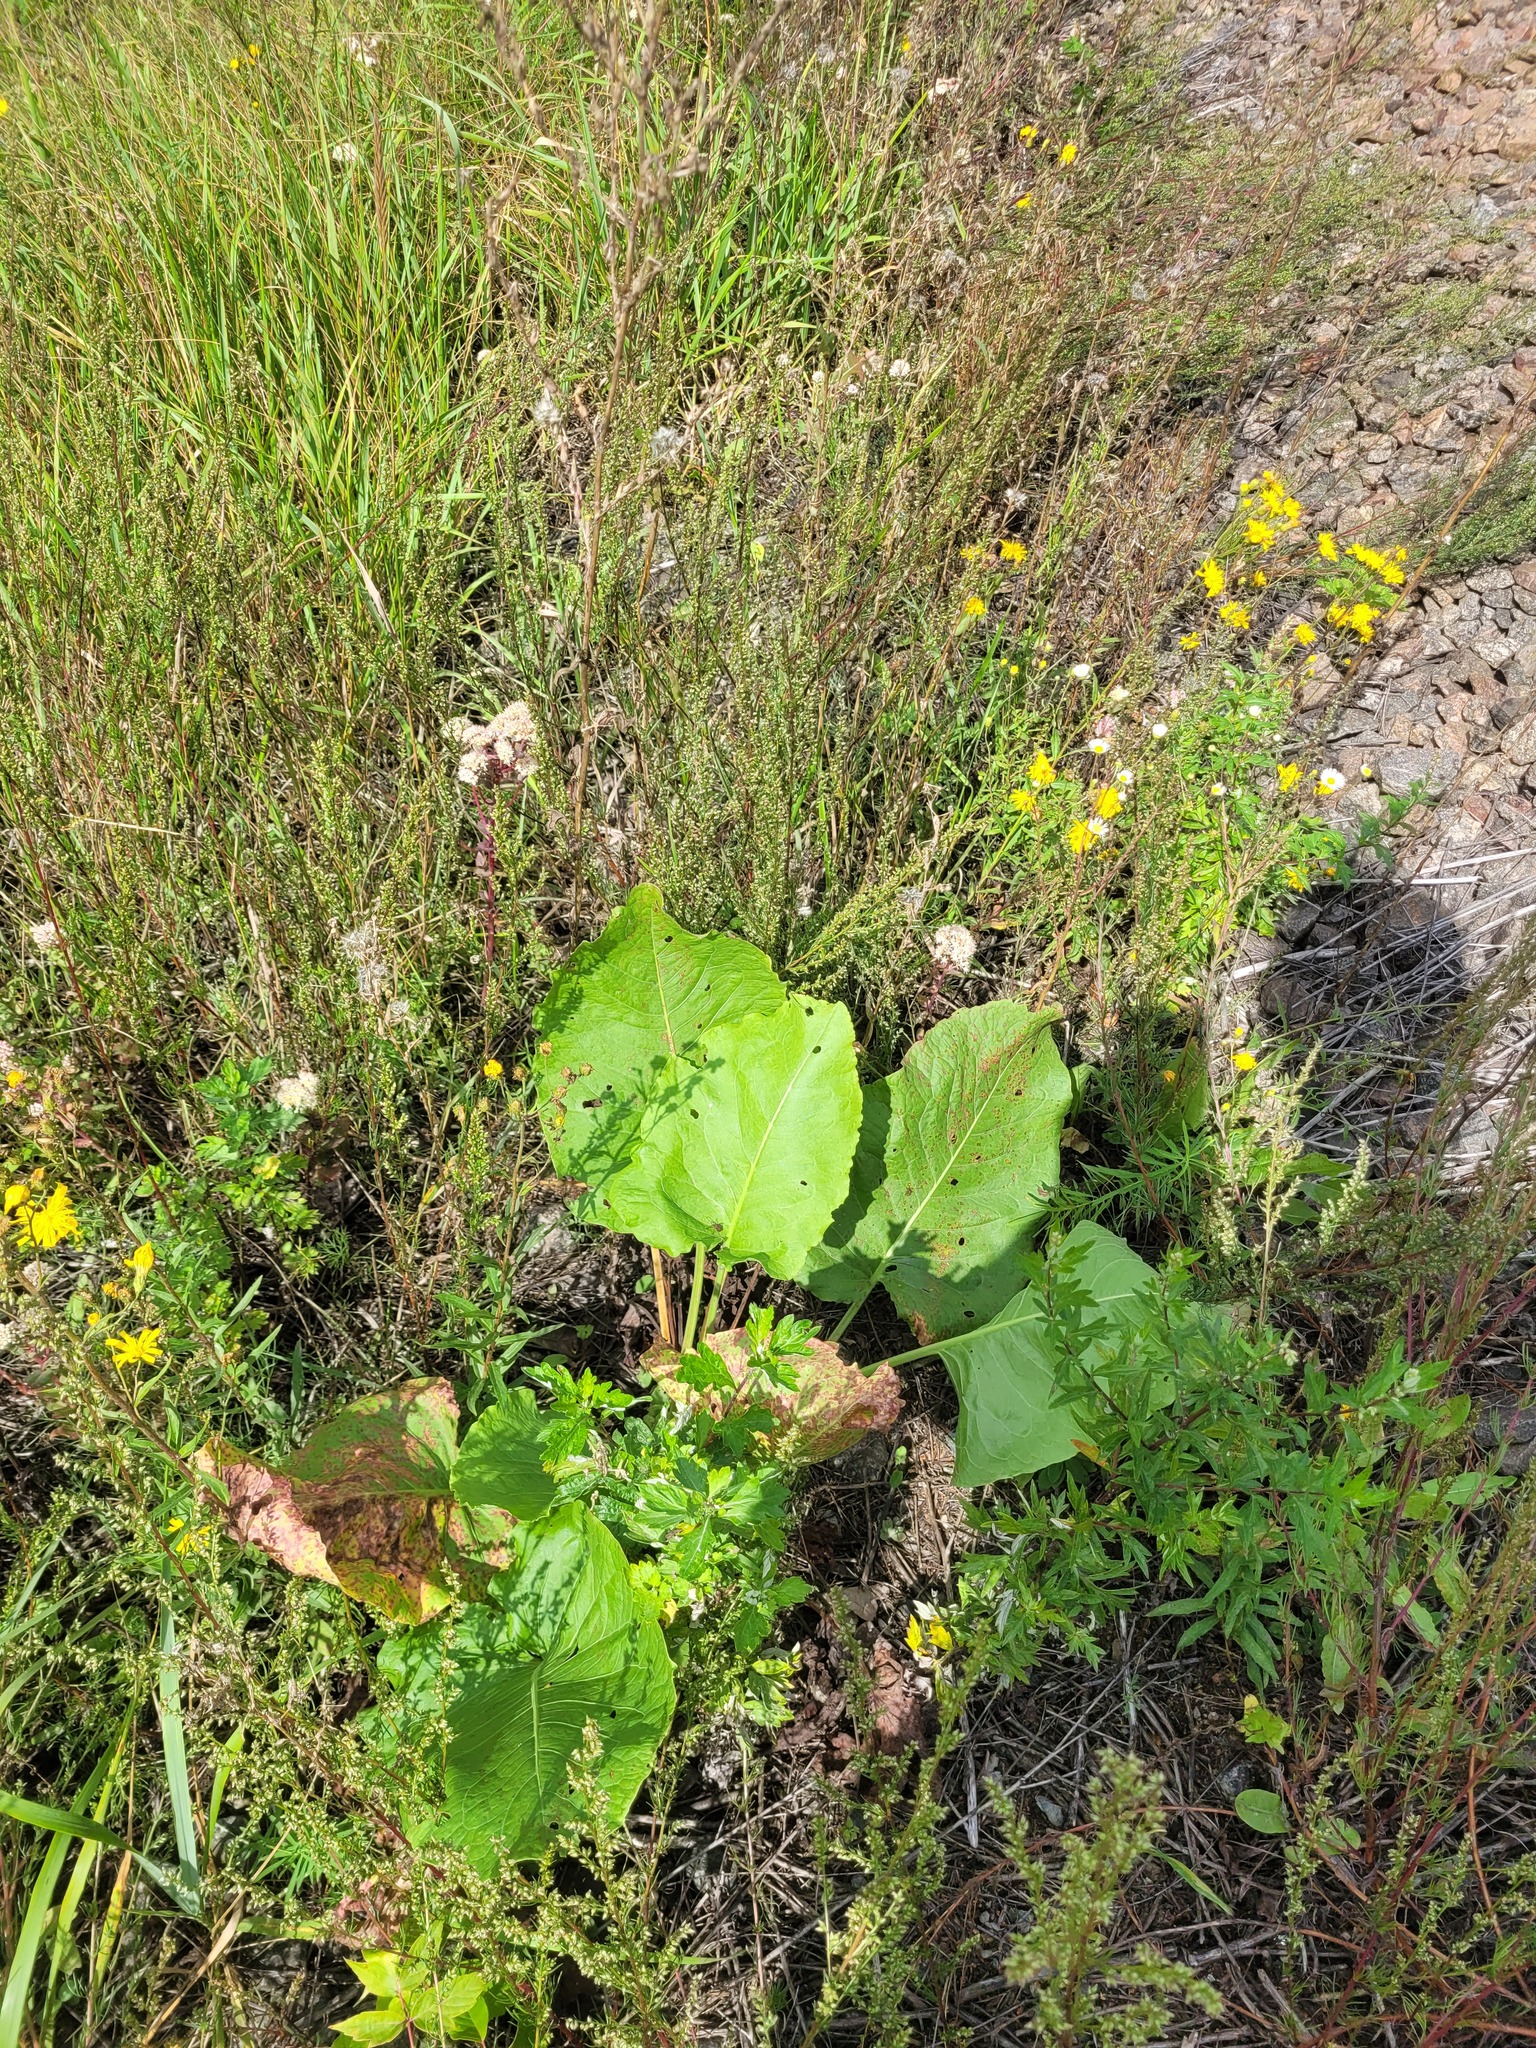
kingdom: Plantae
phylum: Tracheophyta
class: Magnoliopsida
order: Caryophyllales
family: Polygonaceae
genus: Rumex
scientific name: Rumex confertus
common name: Russian dock
